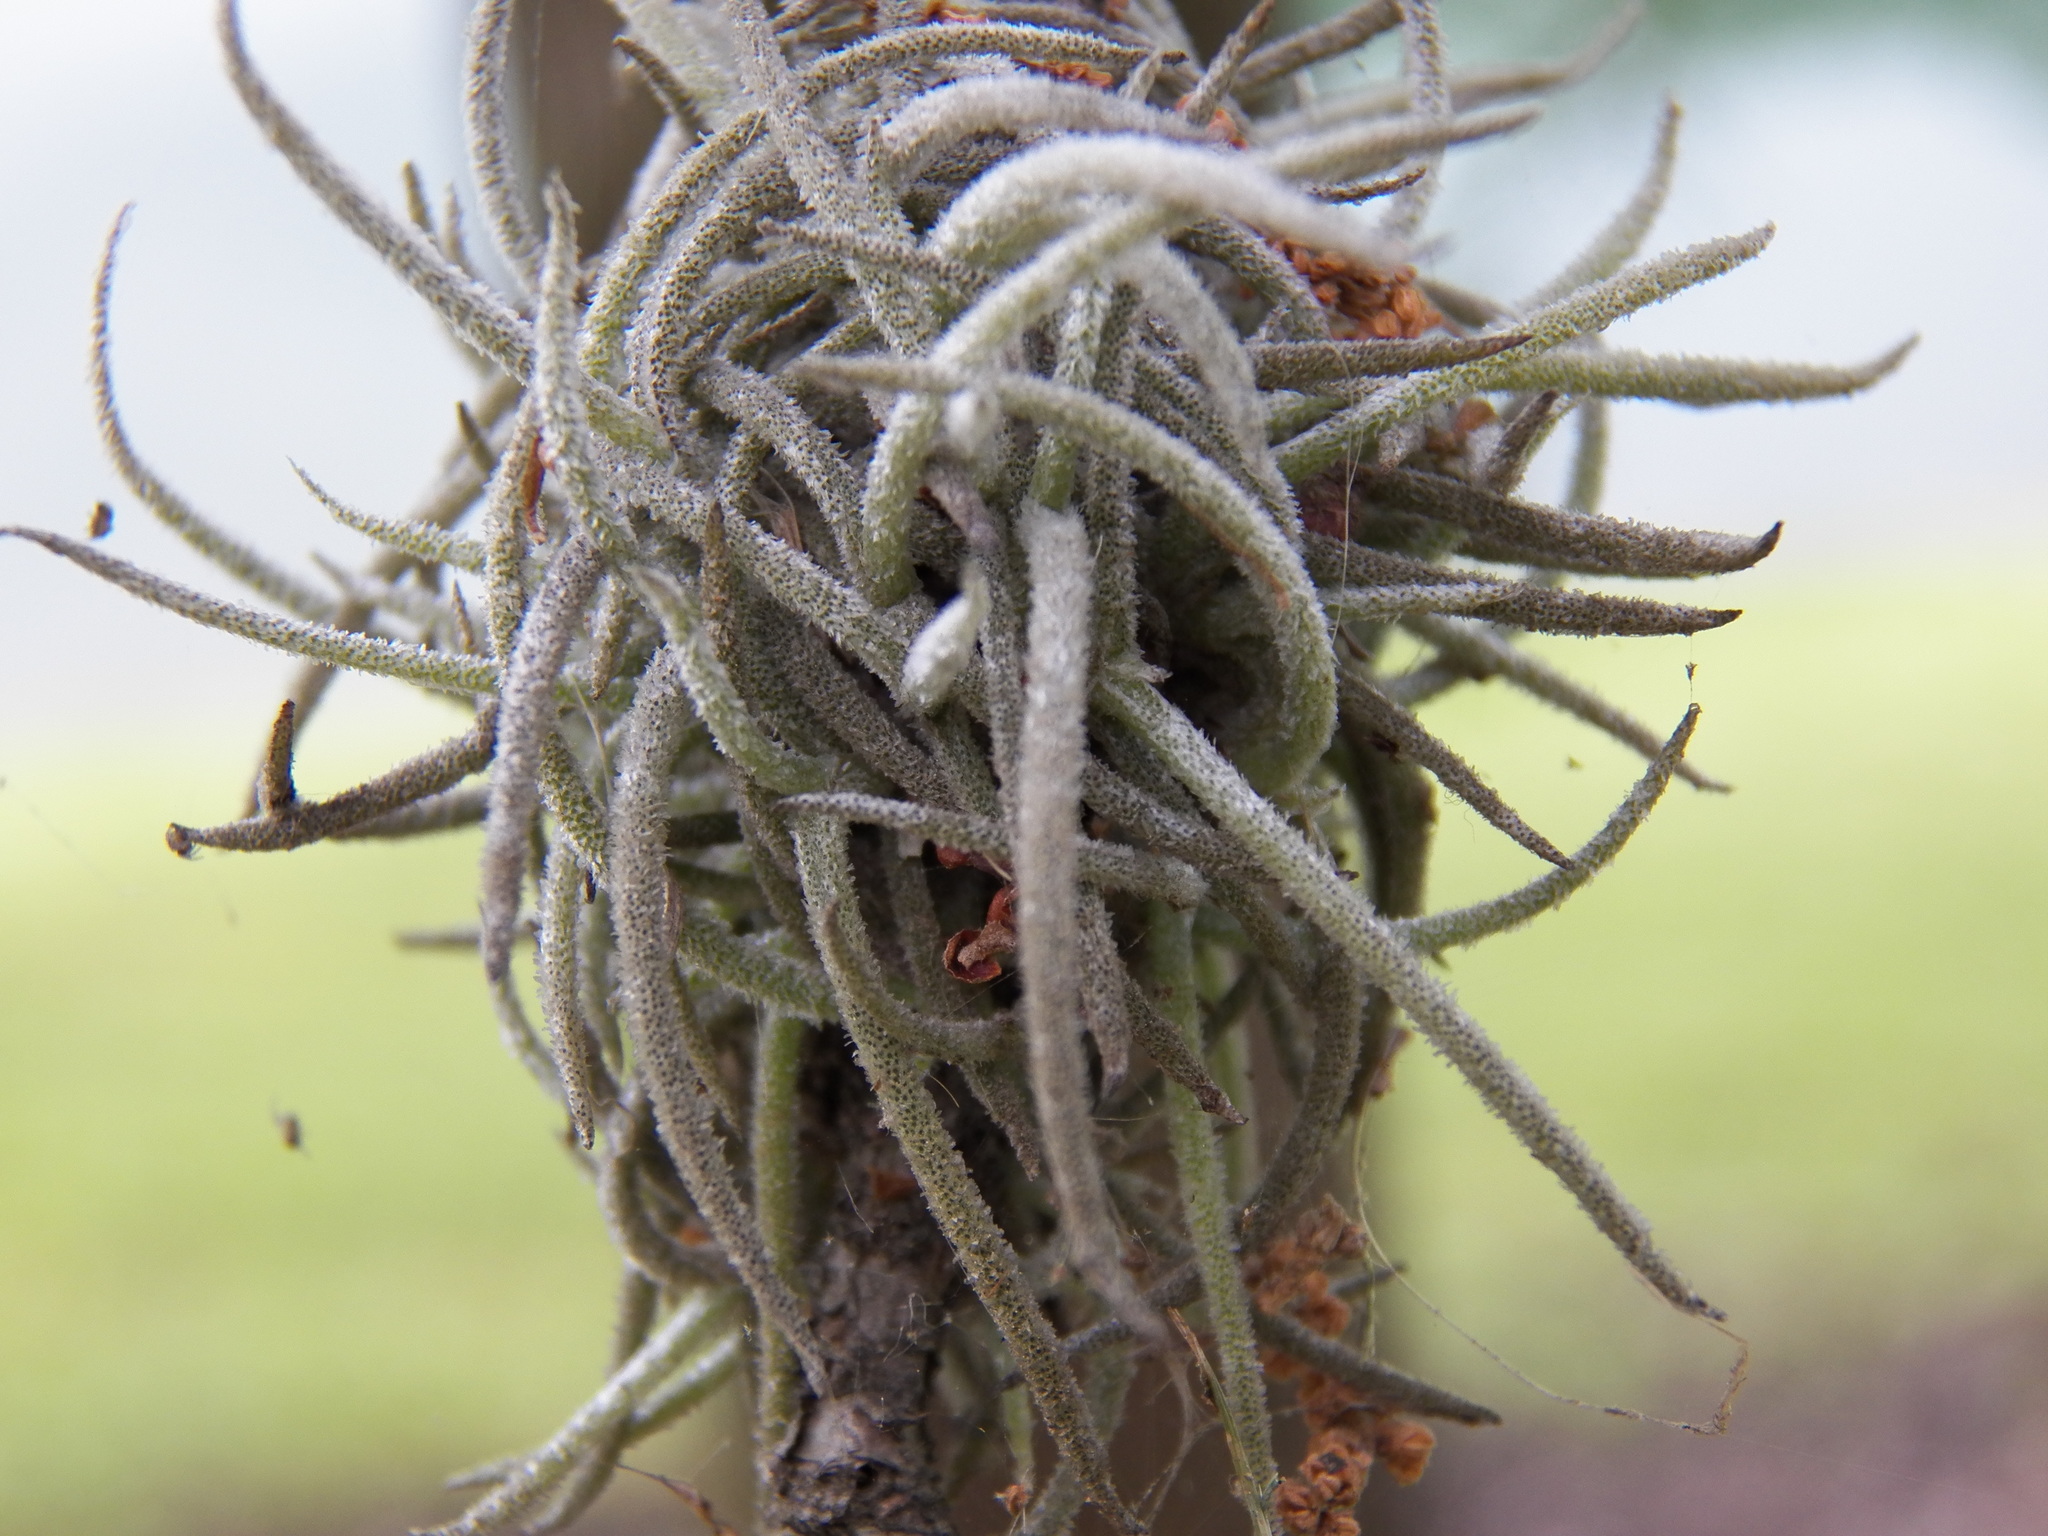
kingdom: Plantae
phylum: Tracheophyta
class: Liliopsida
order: Poales
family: Bromeliaceae
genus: Tillandsia
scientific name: Tillandsia recurvata
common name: Small ballmoss
